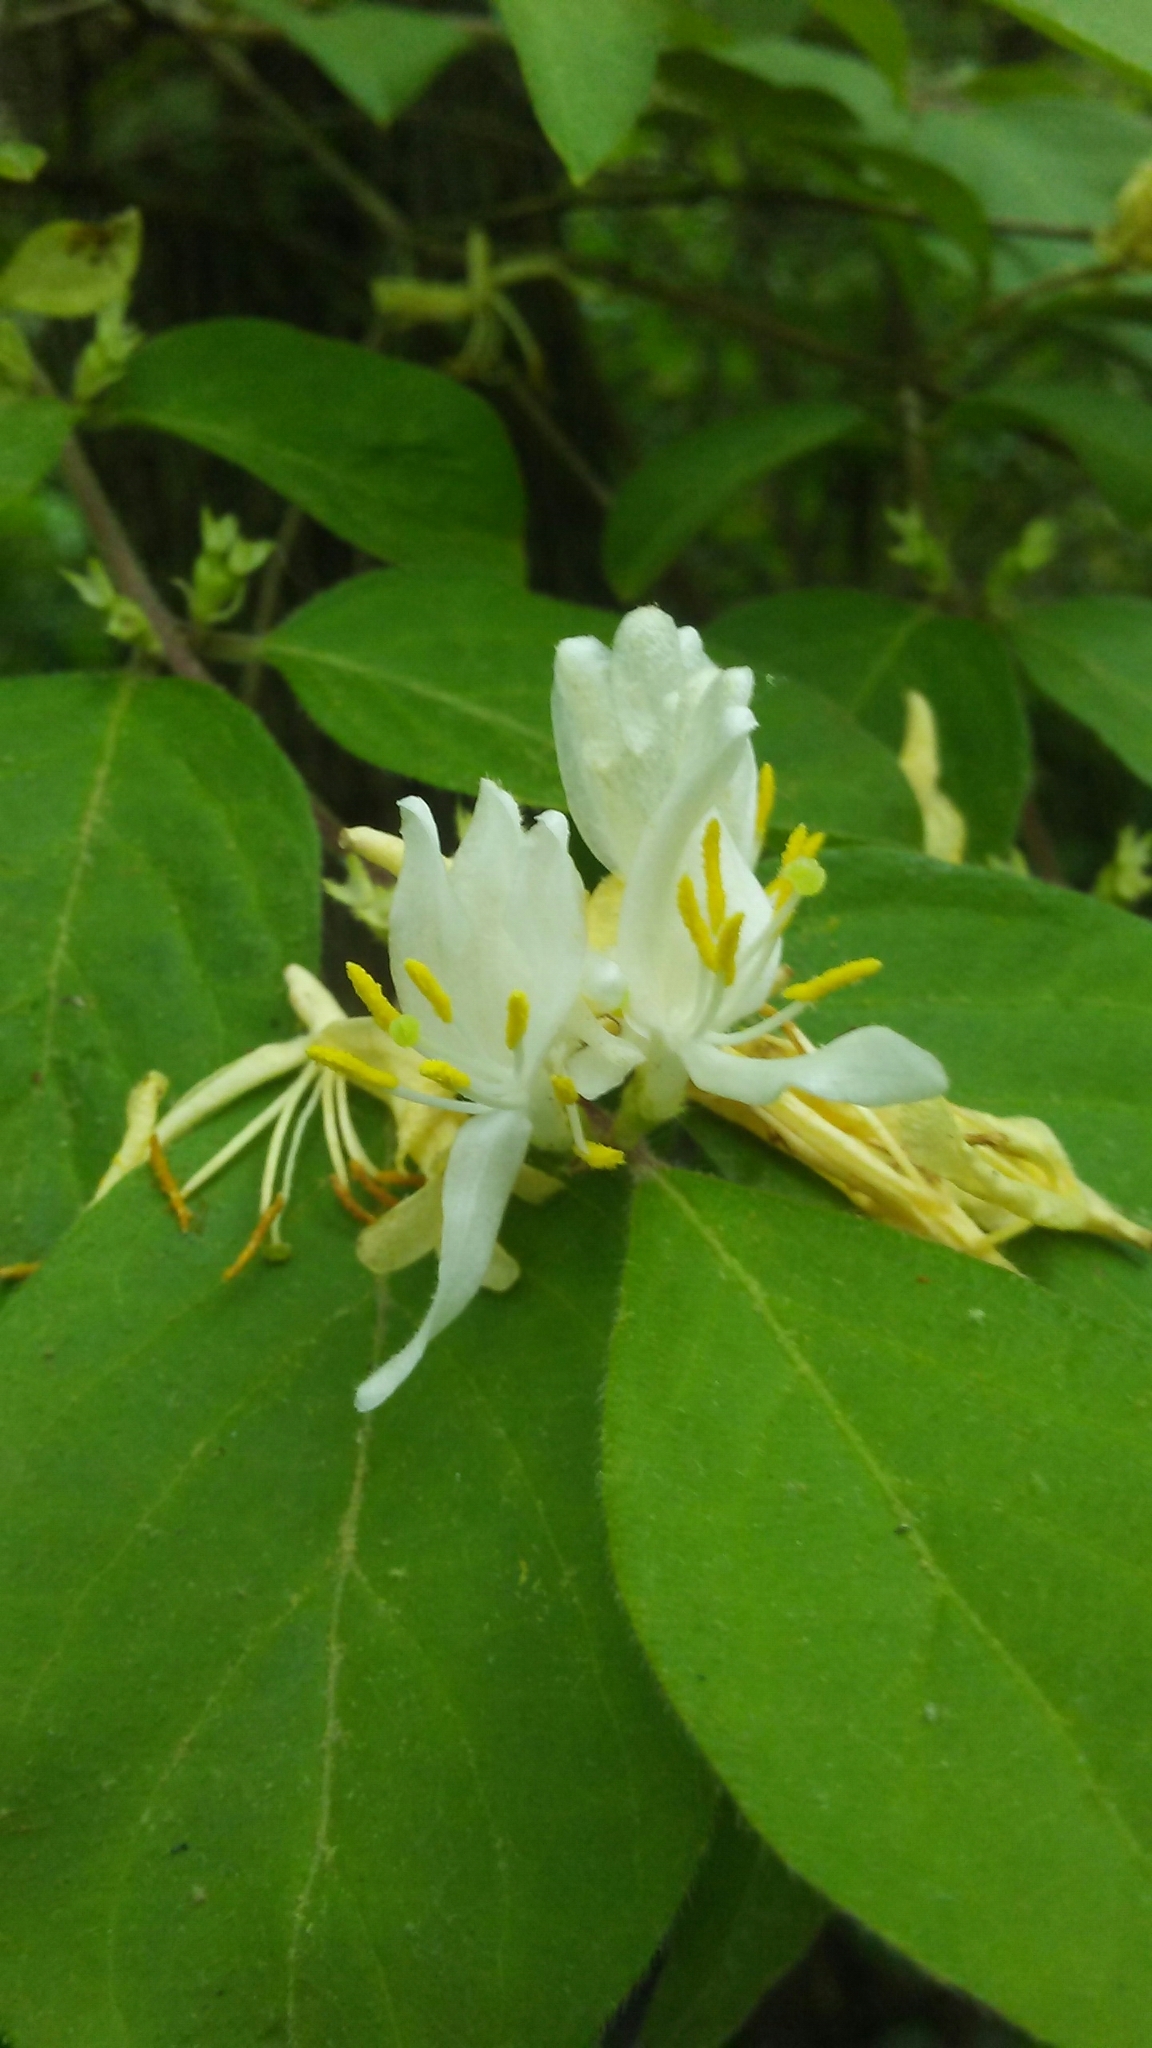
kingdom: Plantae
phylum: Tracheophyta
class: Magnoliopsida
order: Dipsacales
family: Caprifoliaceae
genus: Lonicera
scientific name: Lonicera maackii
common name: Amur honeysuckle
